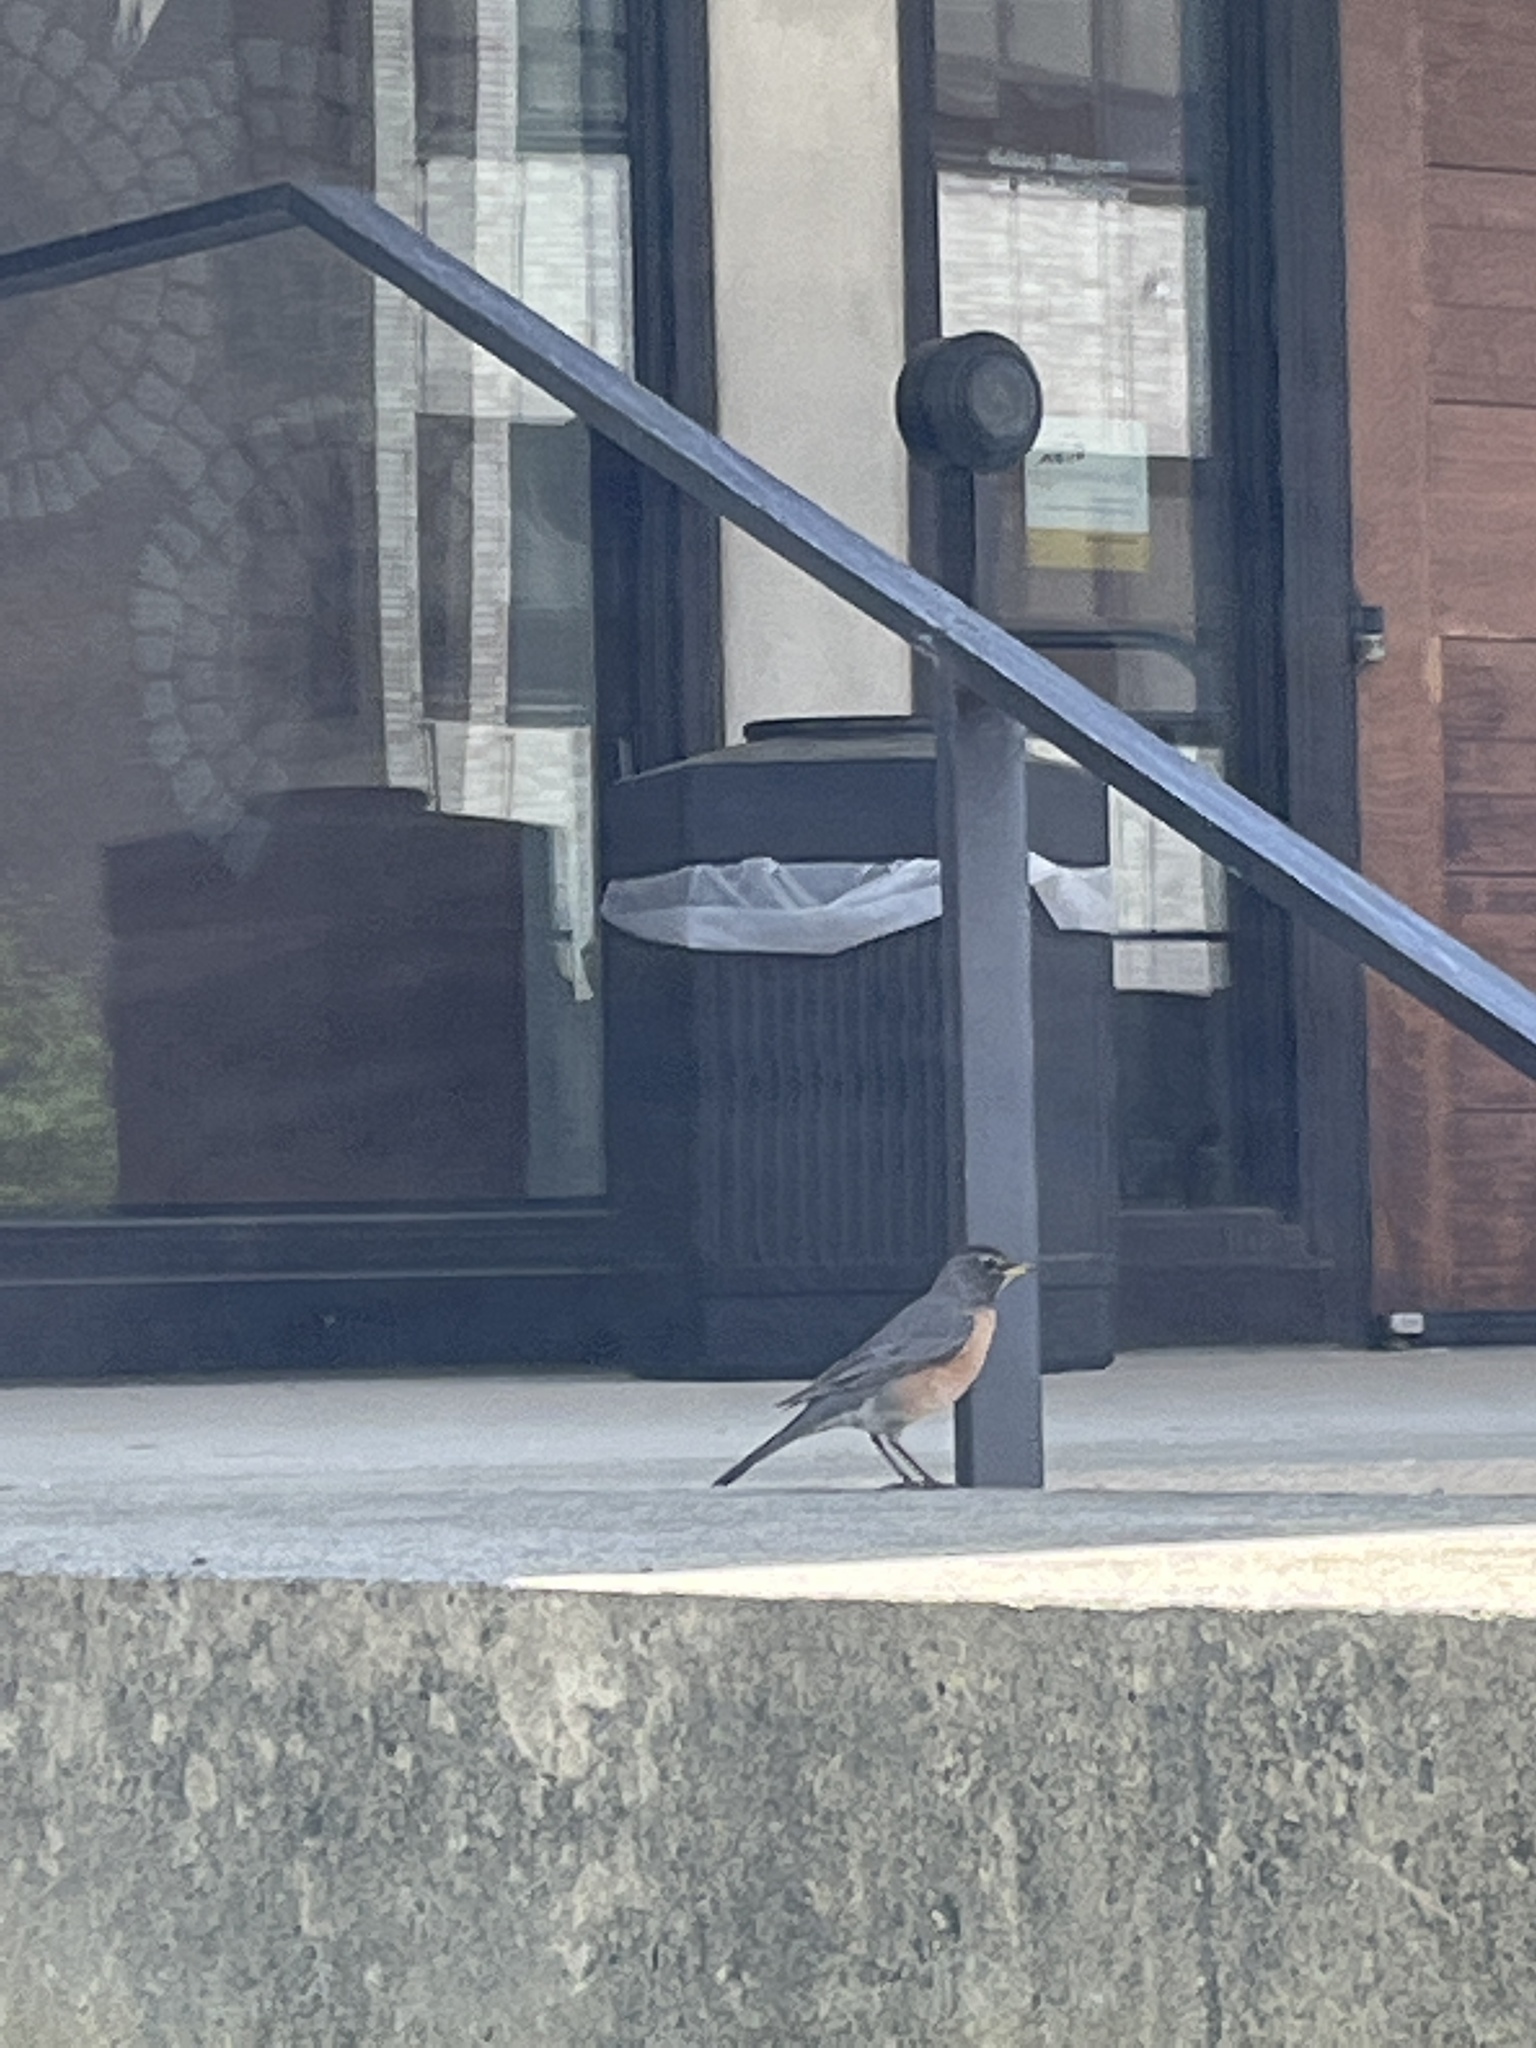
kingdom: Animalia
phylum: Chordata
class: Aves
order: Passeriformes
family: Turdidae
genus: Turdus
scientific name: Turdus migratorius
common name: American robin
